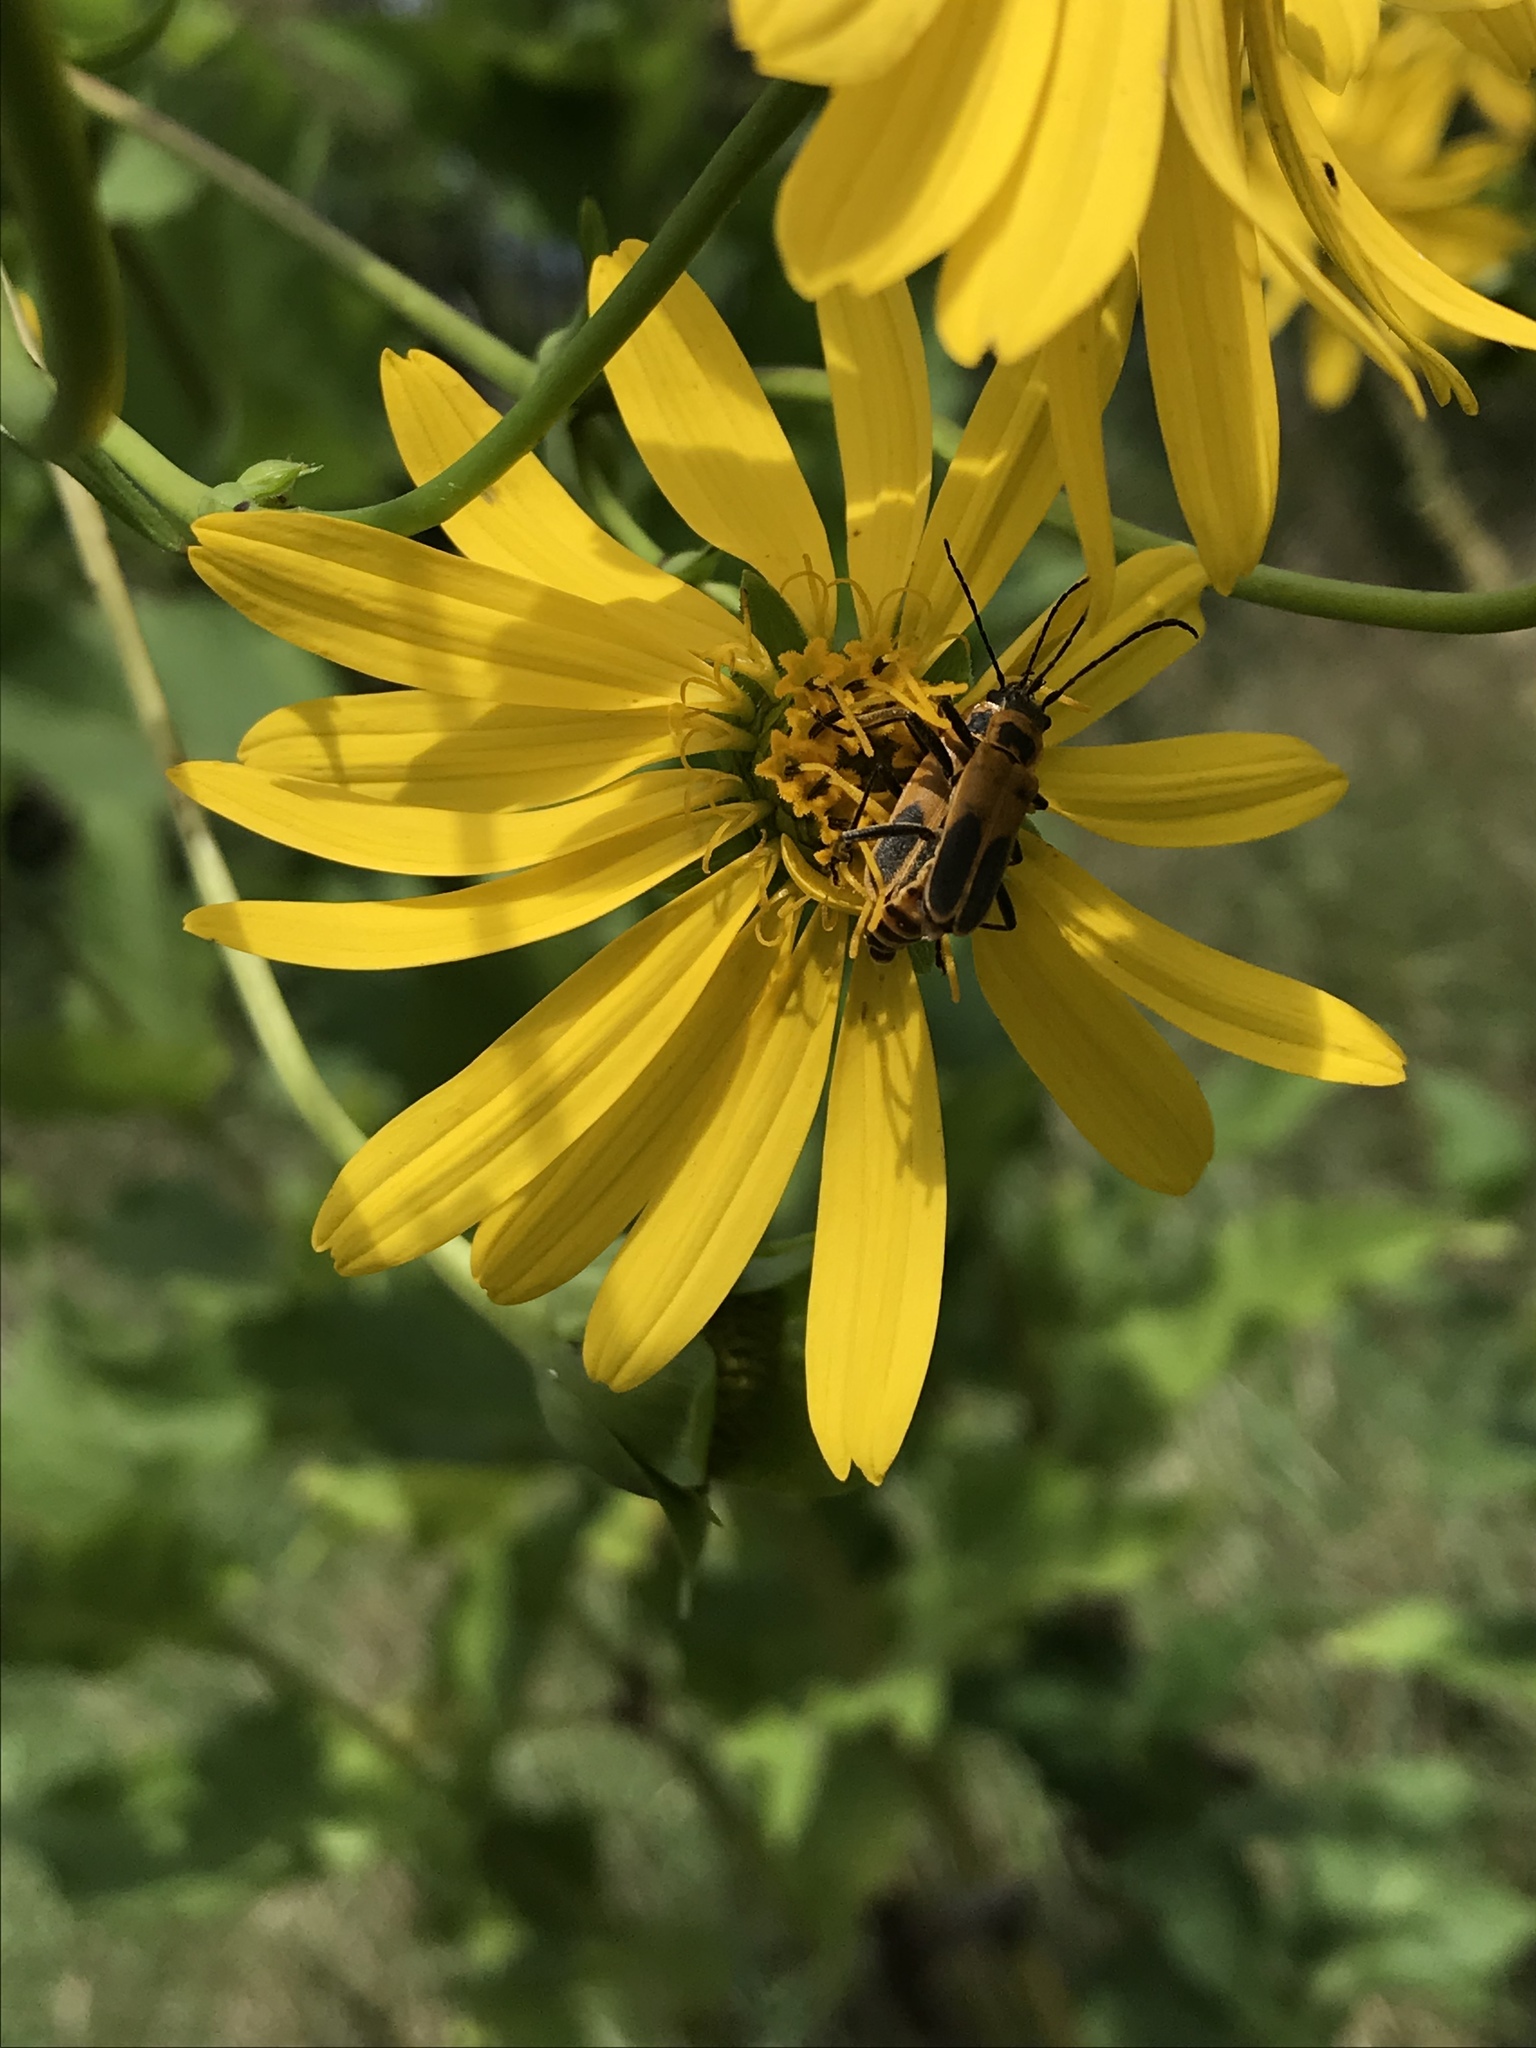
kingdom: Animalia
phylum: Arthropoda
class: Insecta
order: Coleoptera
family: Cantharidae
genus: Chauliognathus
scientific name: Chauliognathus pensylvanicus
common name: Goldenrod soldier beetle
